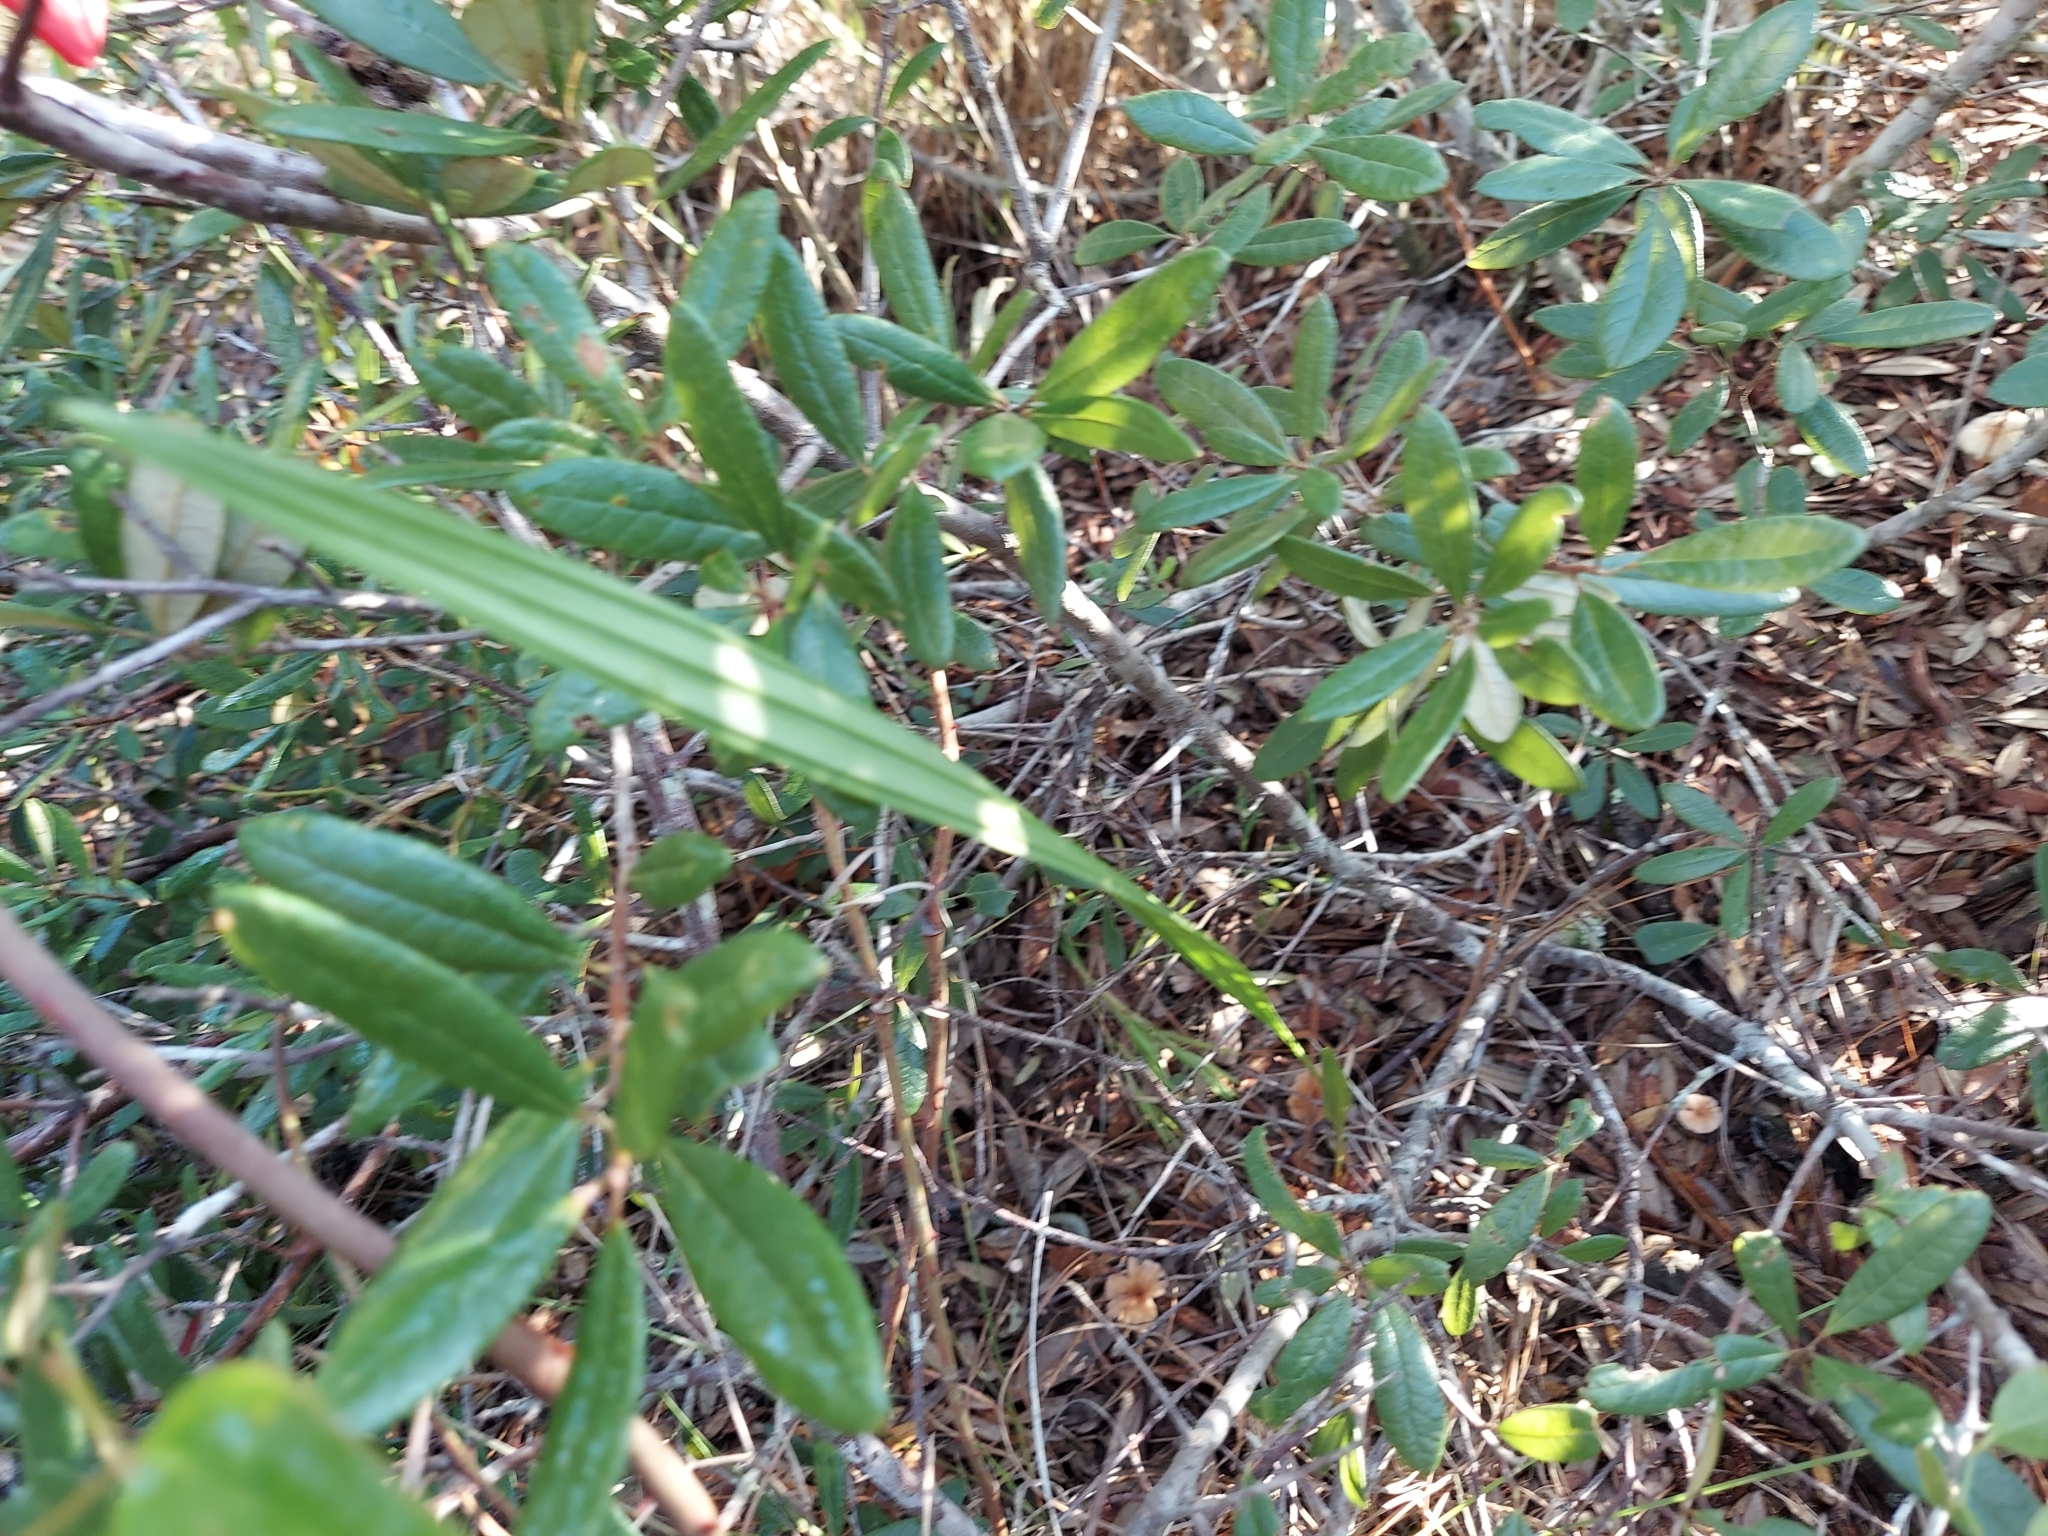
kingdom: Plantae
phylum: Tracheophyta
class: Liliopsida
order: Asparagales
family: Orchidaceae
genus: Eulophia
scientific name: Eulophia ecristata
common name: Giant orchid
